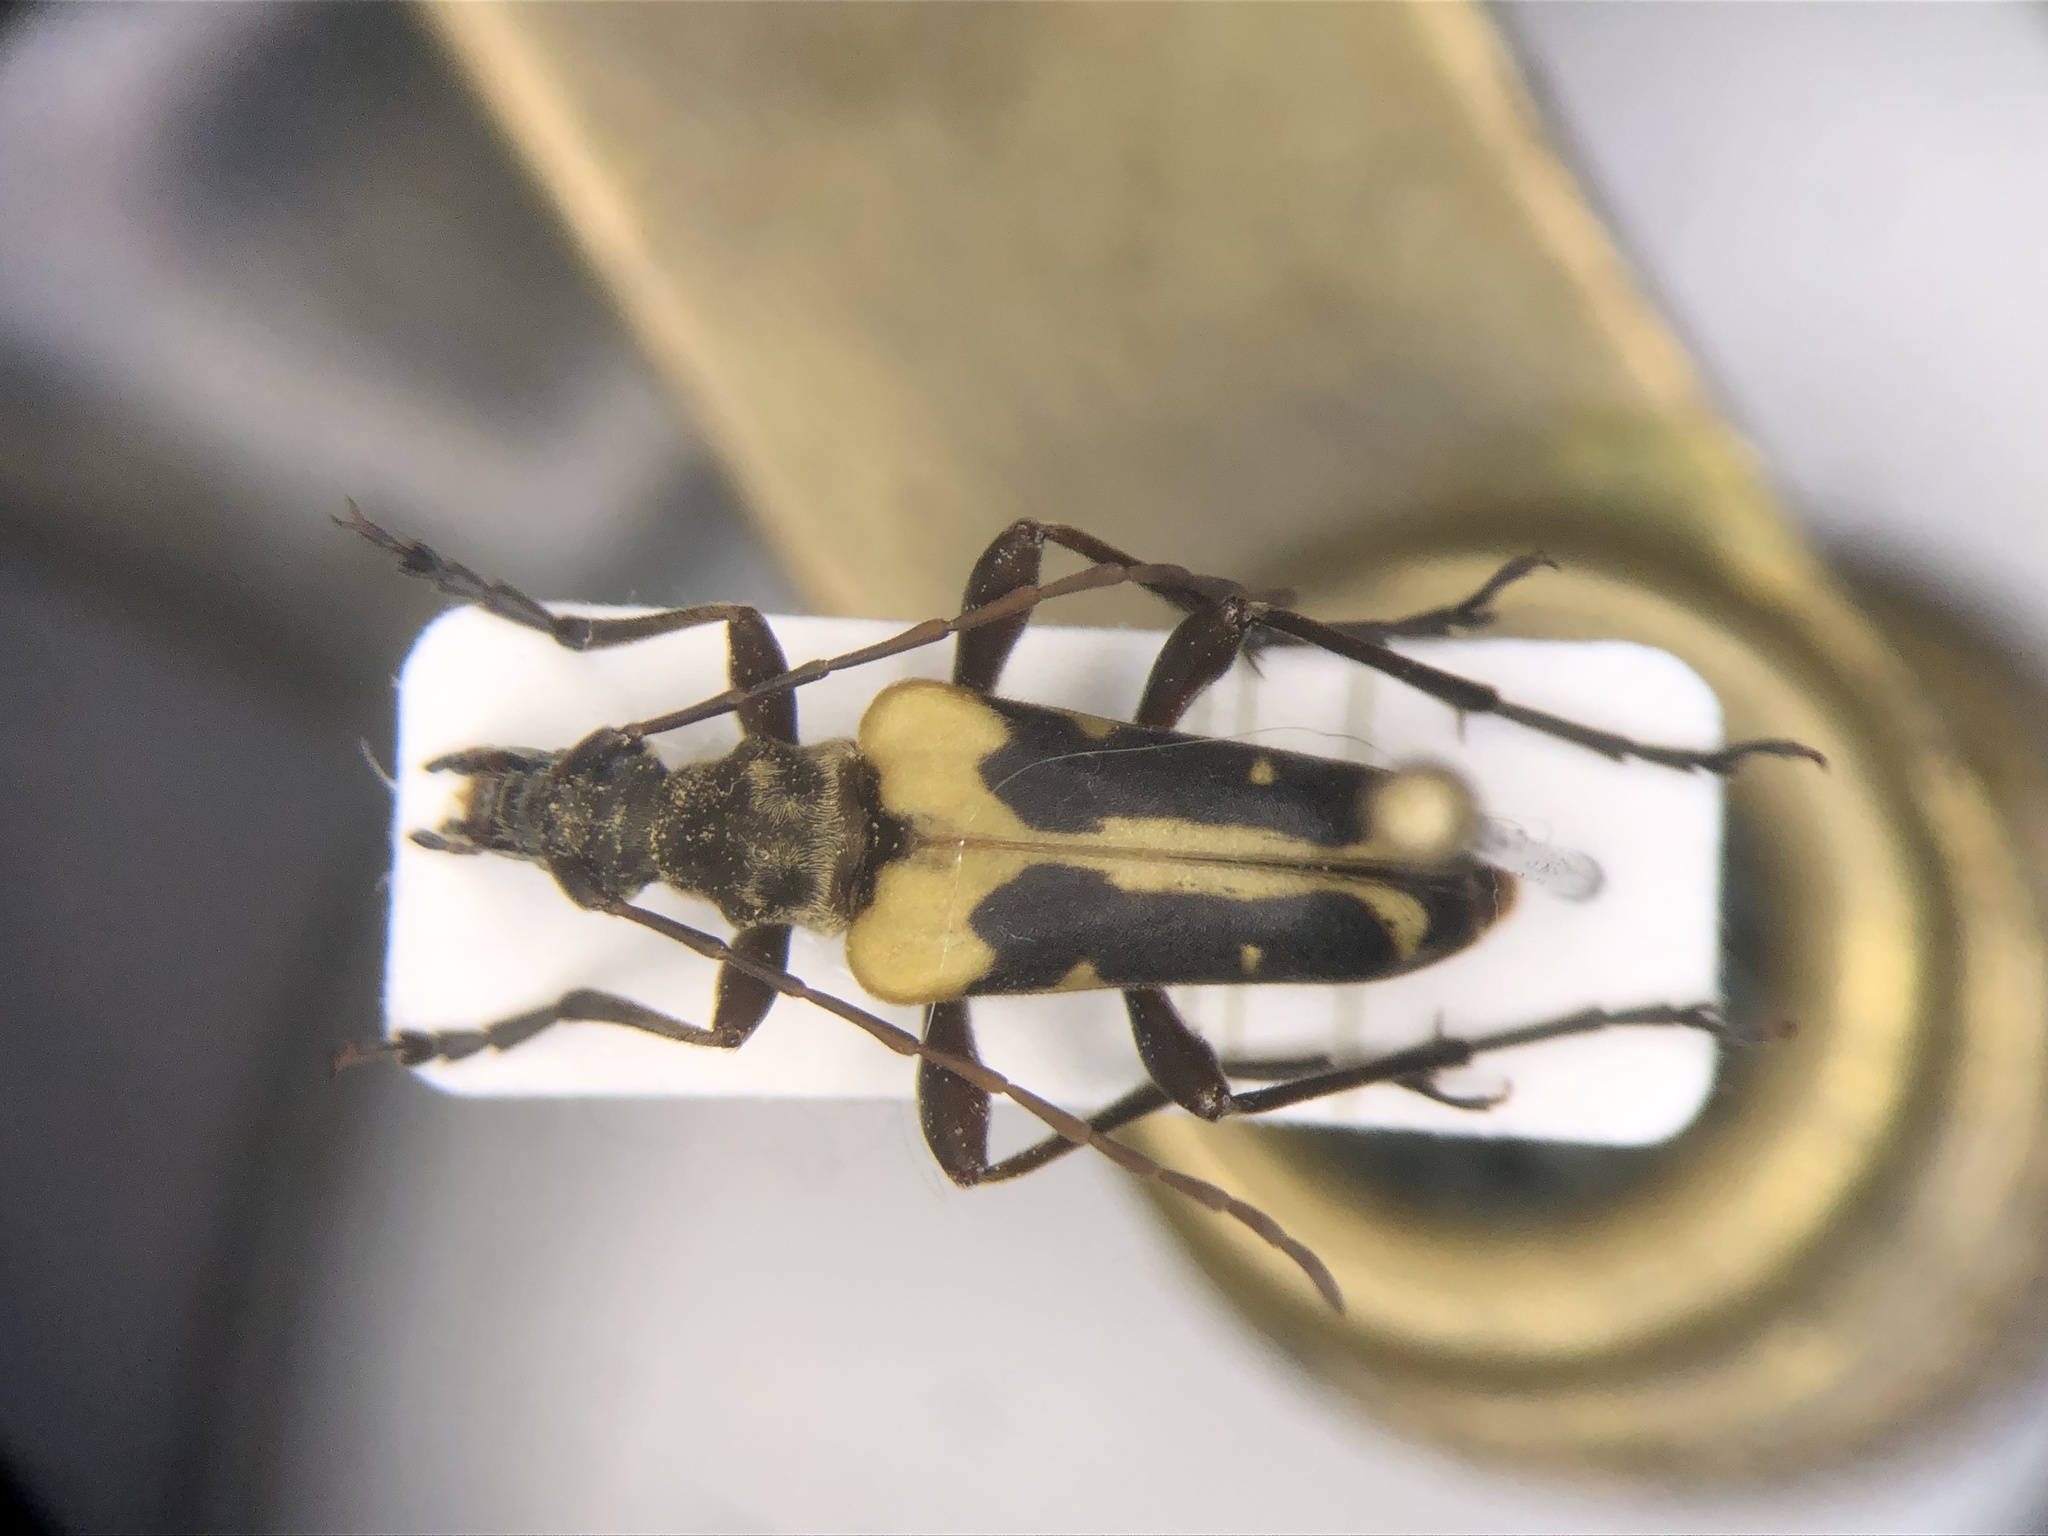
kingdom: Animalia
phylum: Arthropoda
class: Insecta
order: Coleoptera
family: Cerambycidae
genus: Evodinus
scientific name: Evodinus monticola
